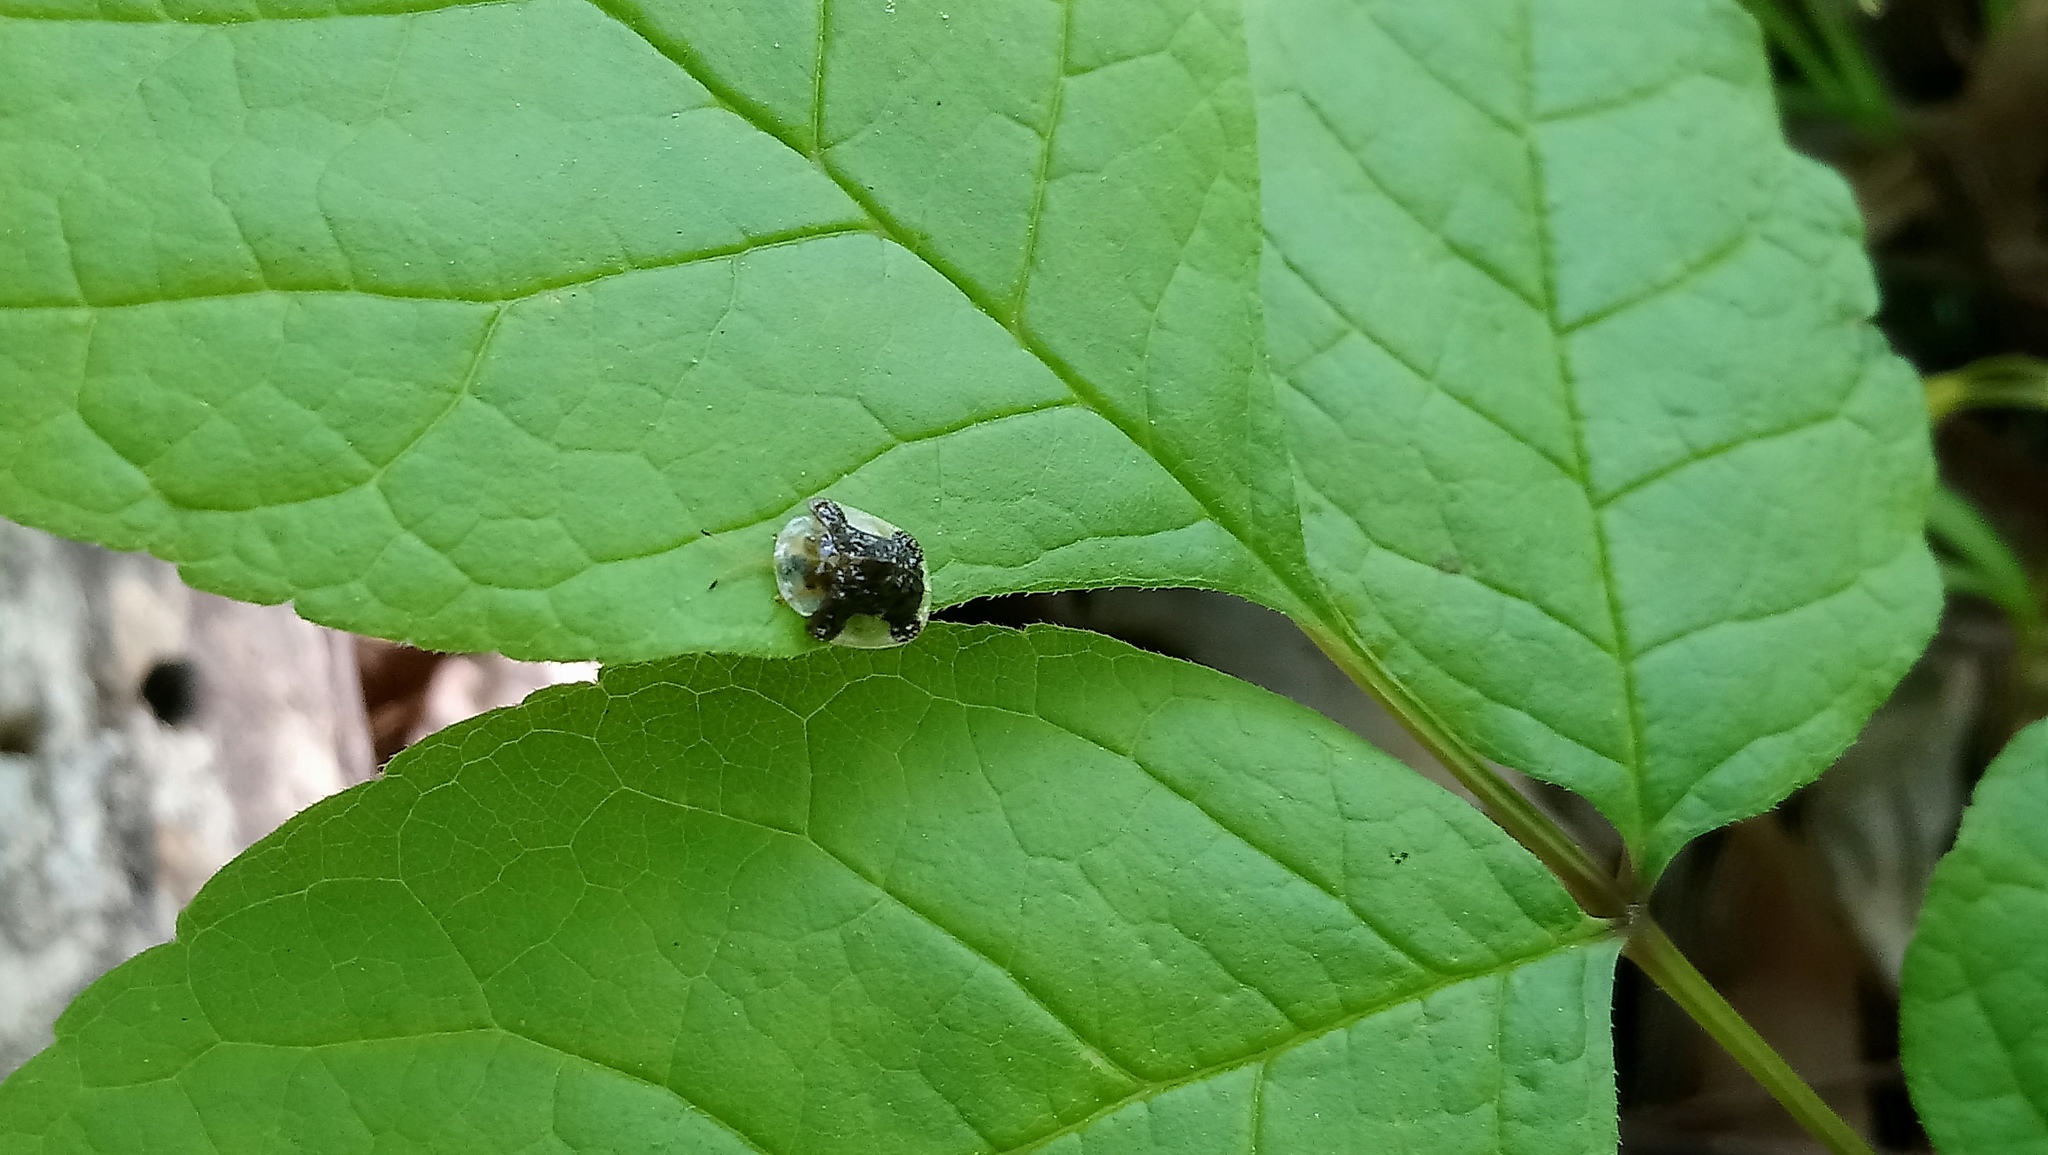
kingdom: Animalia
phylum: Arthropoda
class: Insecta
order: Coleoptera
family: Chrysomelidae
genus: Helocassis
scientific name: Helocassis clavata
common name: Clavate tortoise beetle
